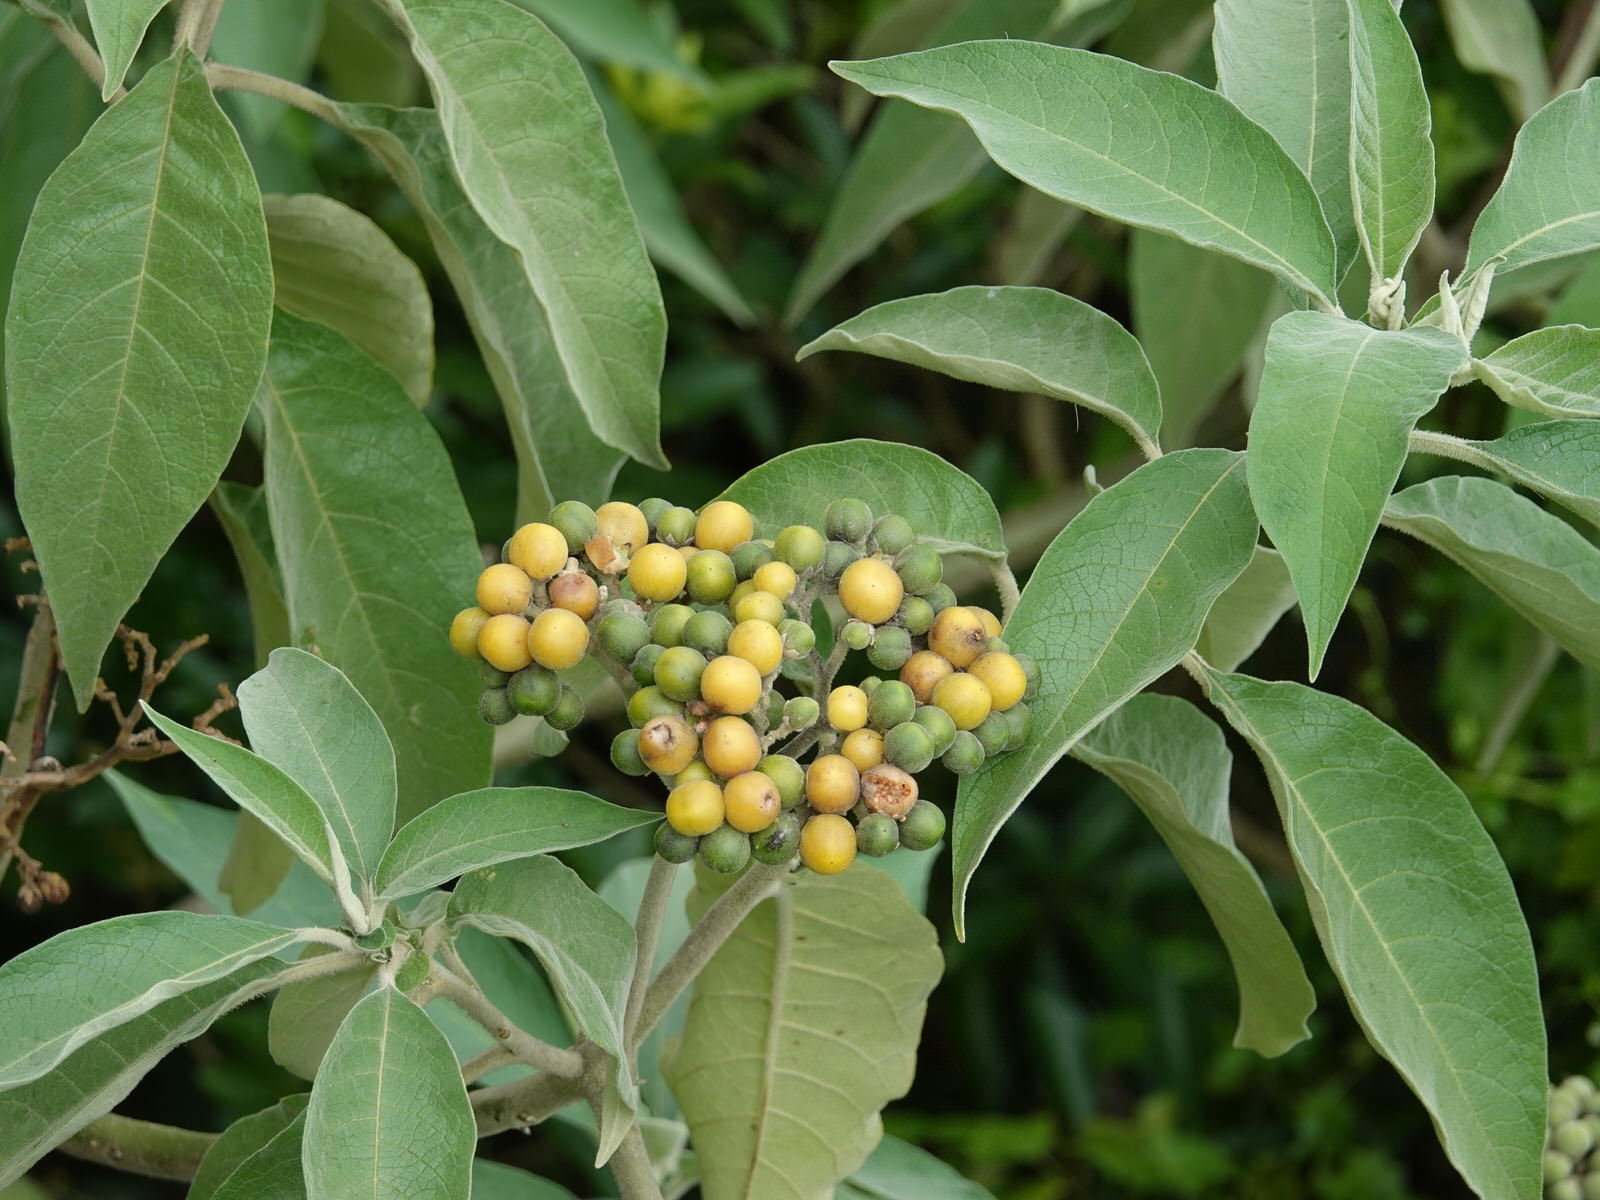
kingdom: Plantae
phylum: Tracheophyta
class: Magnoliopsida
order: Solanales
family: Solanaceae
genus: Solanum
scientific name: Solanum mauritianum
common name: Earleaf nightshade
